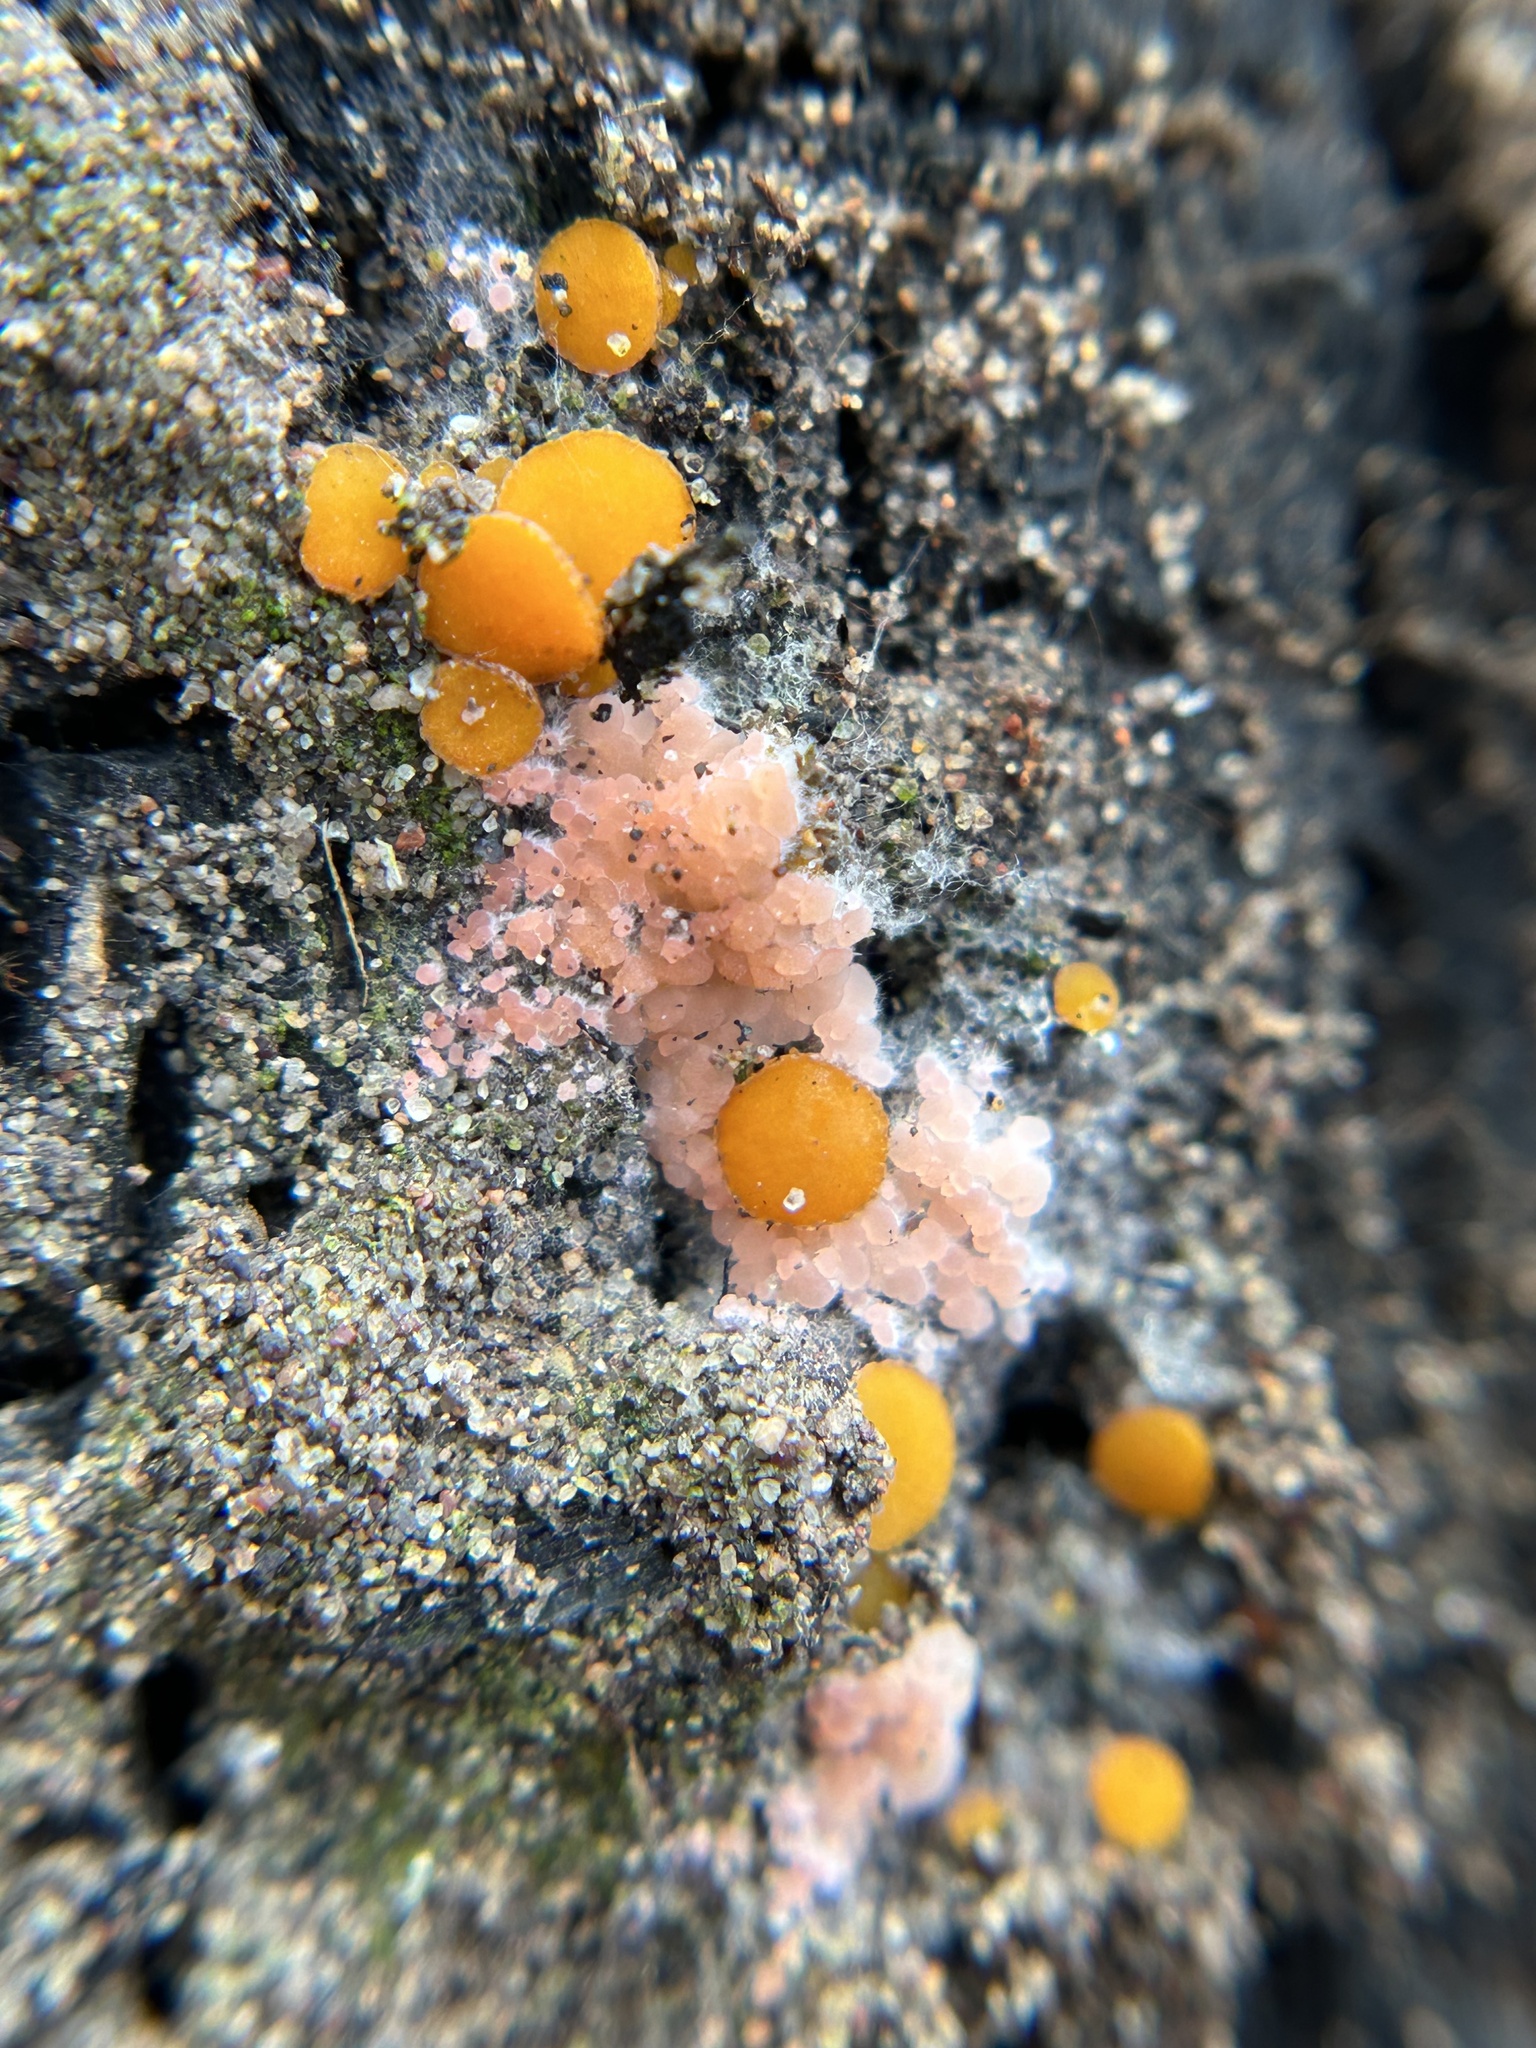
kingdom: Fungi
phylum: Ascomycota
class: Pezizomycetes
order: Pezizales
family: Pyronemataceae
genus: Pyronema
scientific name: Pyronema omphalodes
